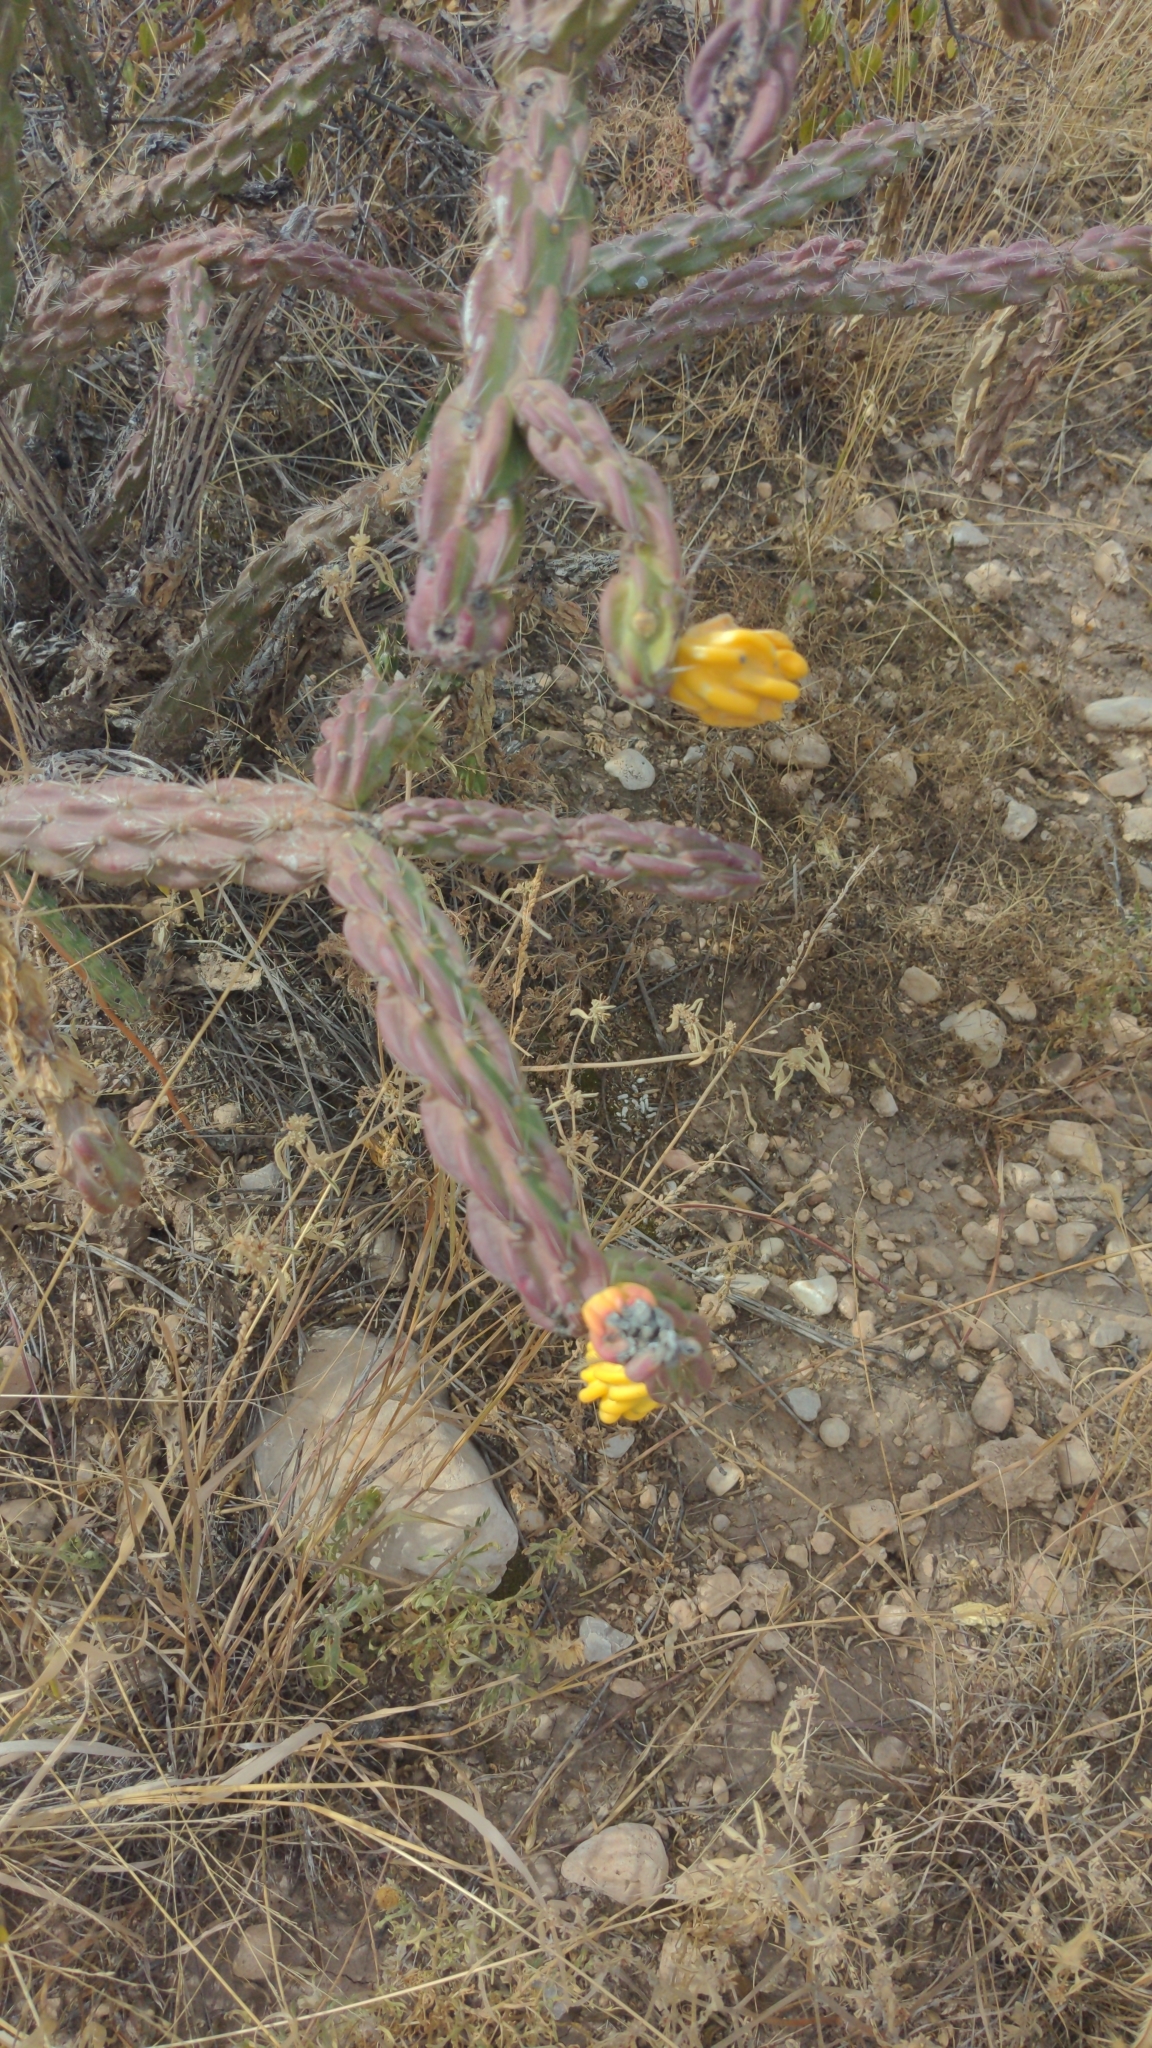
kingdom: Plantae
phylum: Tracheophyta
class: Magnoliopsida
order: Caryophyllales
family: Cactaceae
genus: Cylindropuntia
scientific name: Cylindropuntia imbricata
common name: Candelabrum cactus
